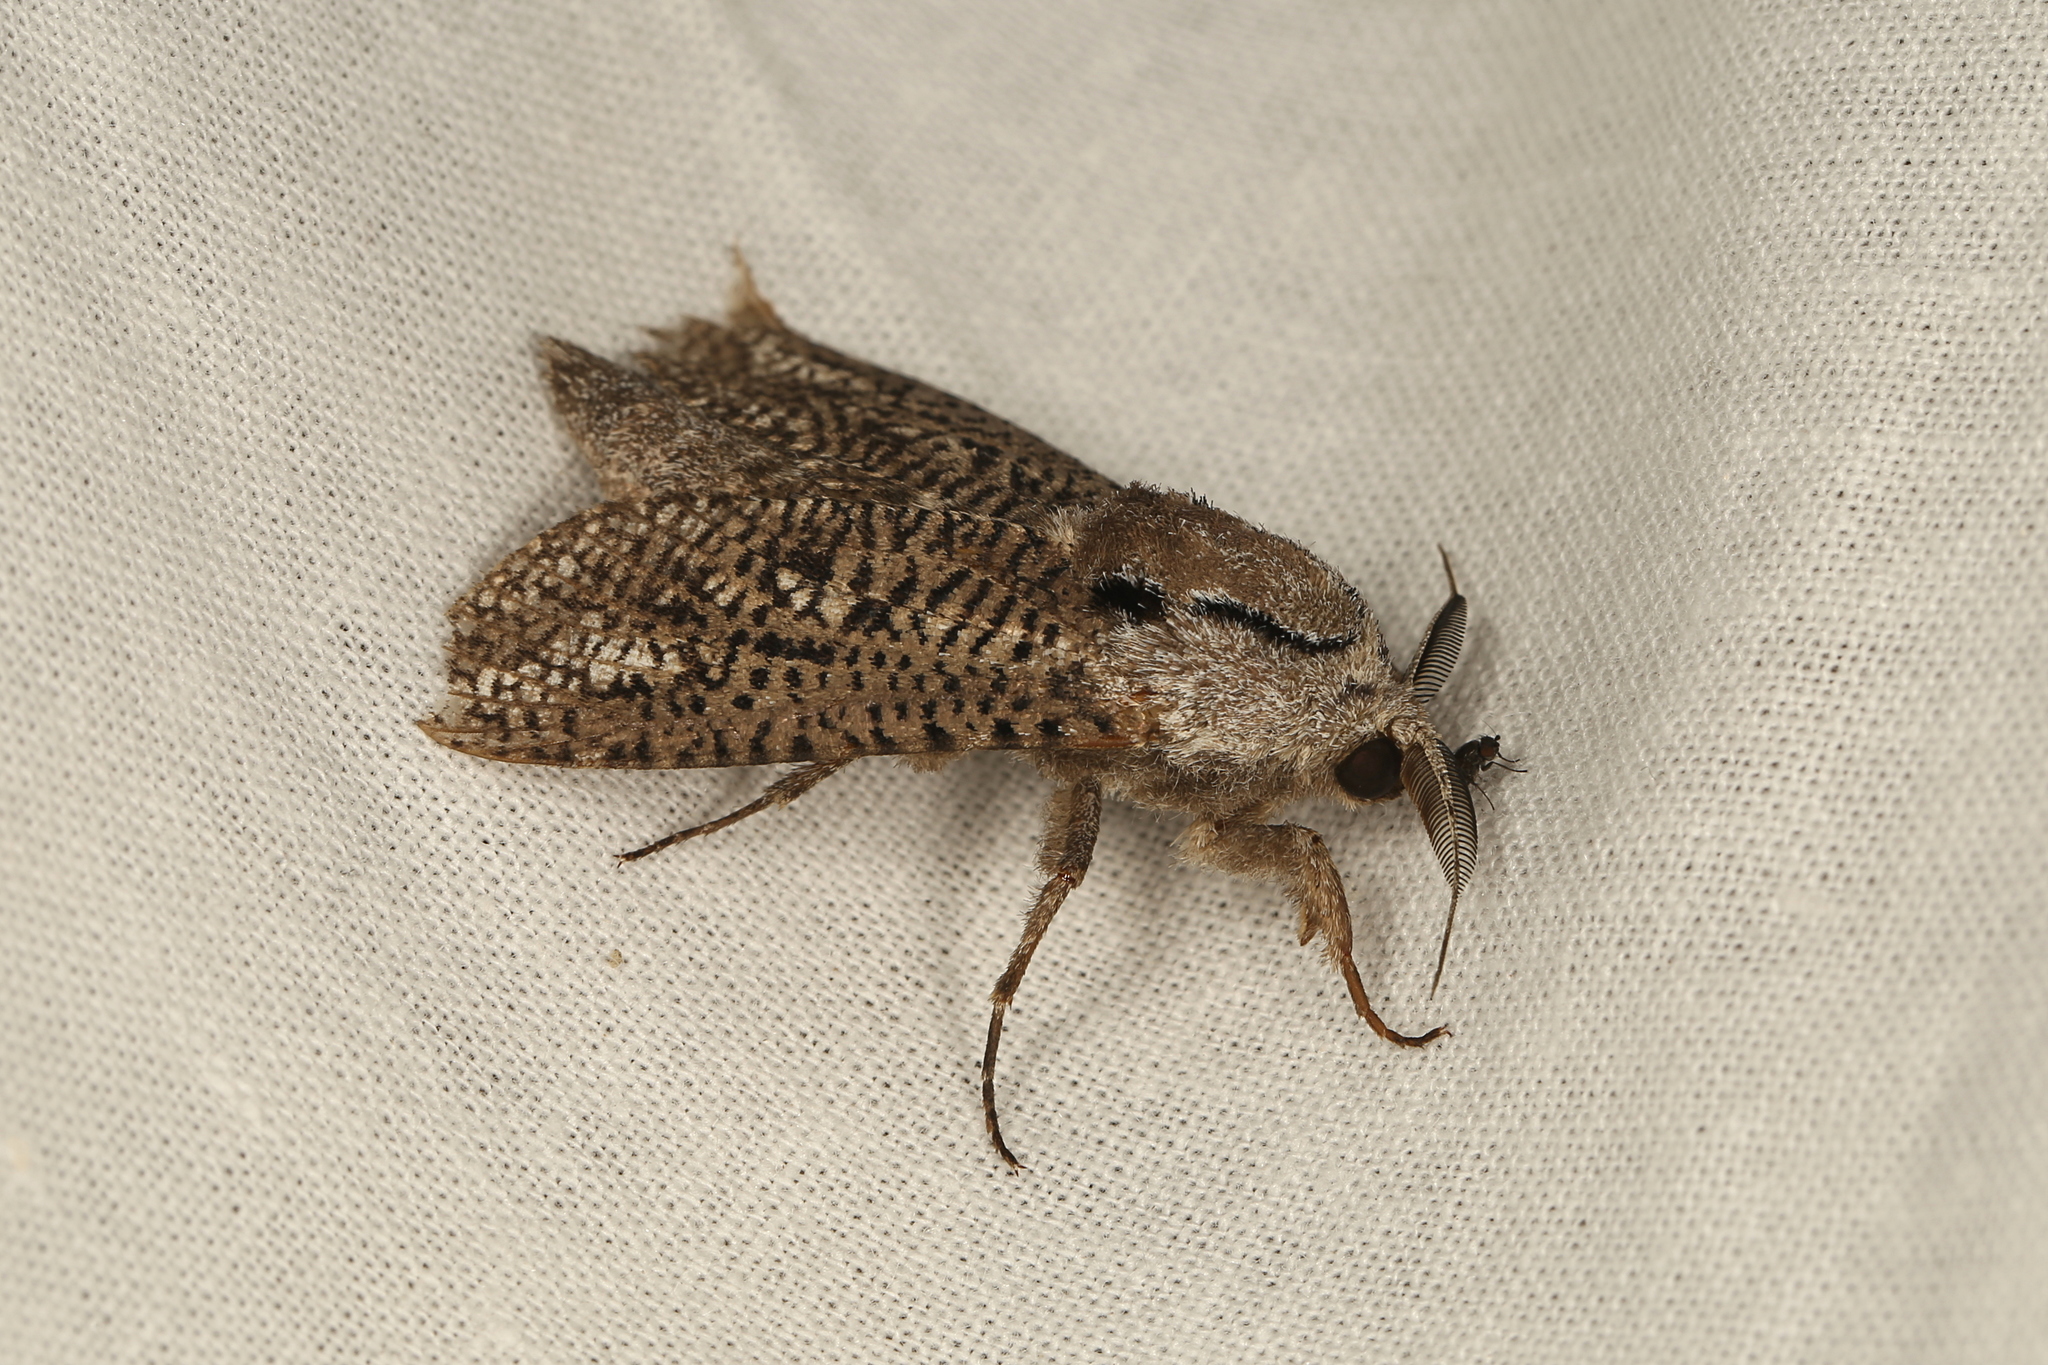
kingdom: Animalia
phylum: Arthropoda
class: Insecta
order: Lepidoptera
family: Cossidae
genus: Endoxyla
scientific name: Endoxyla biarpiti
